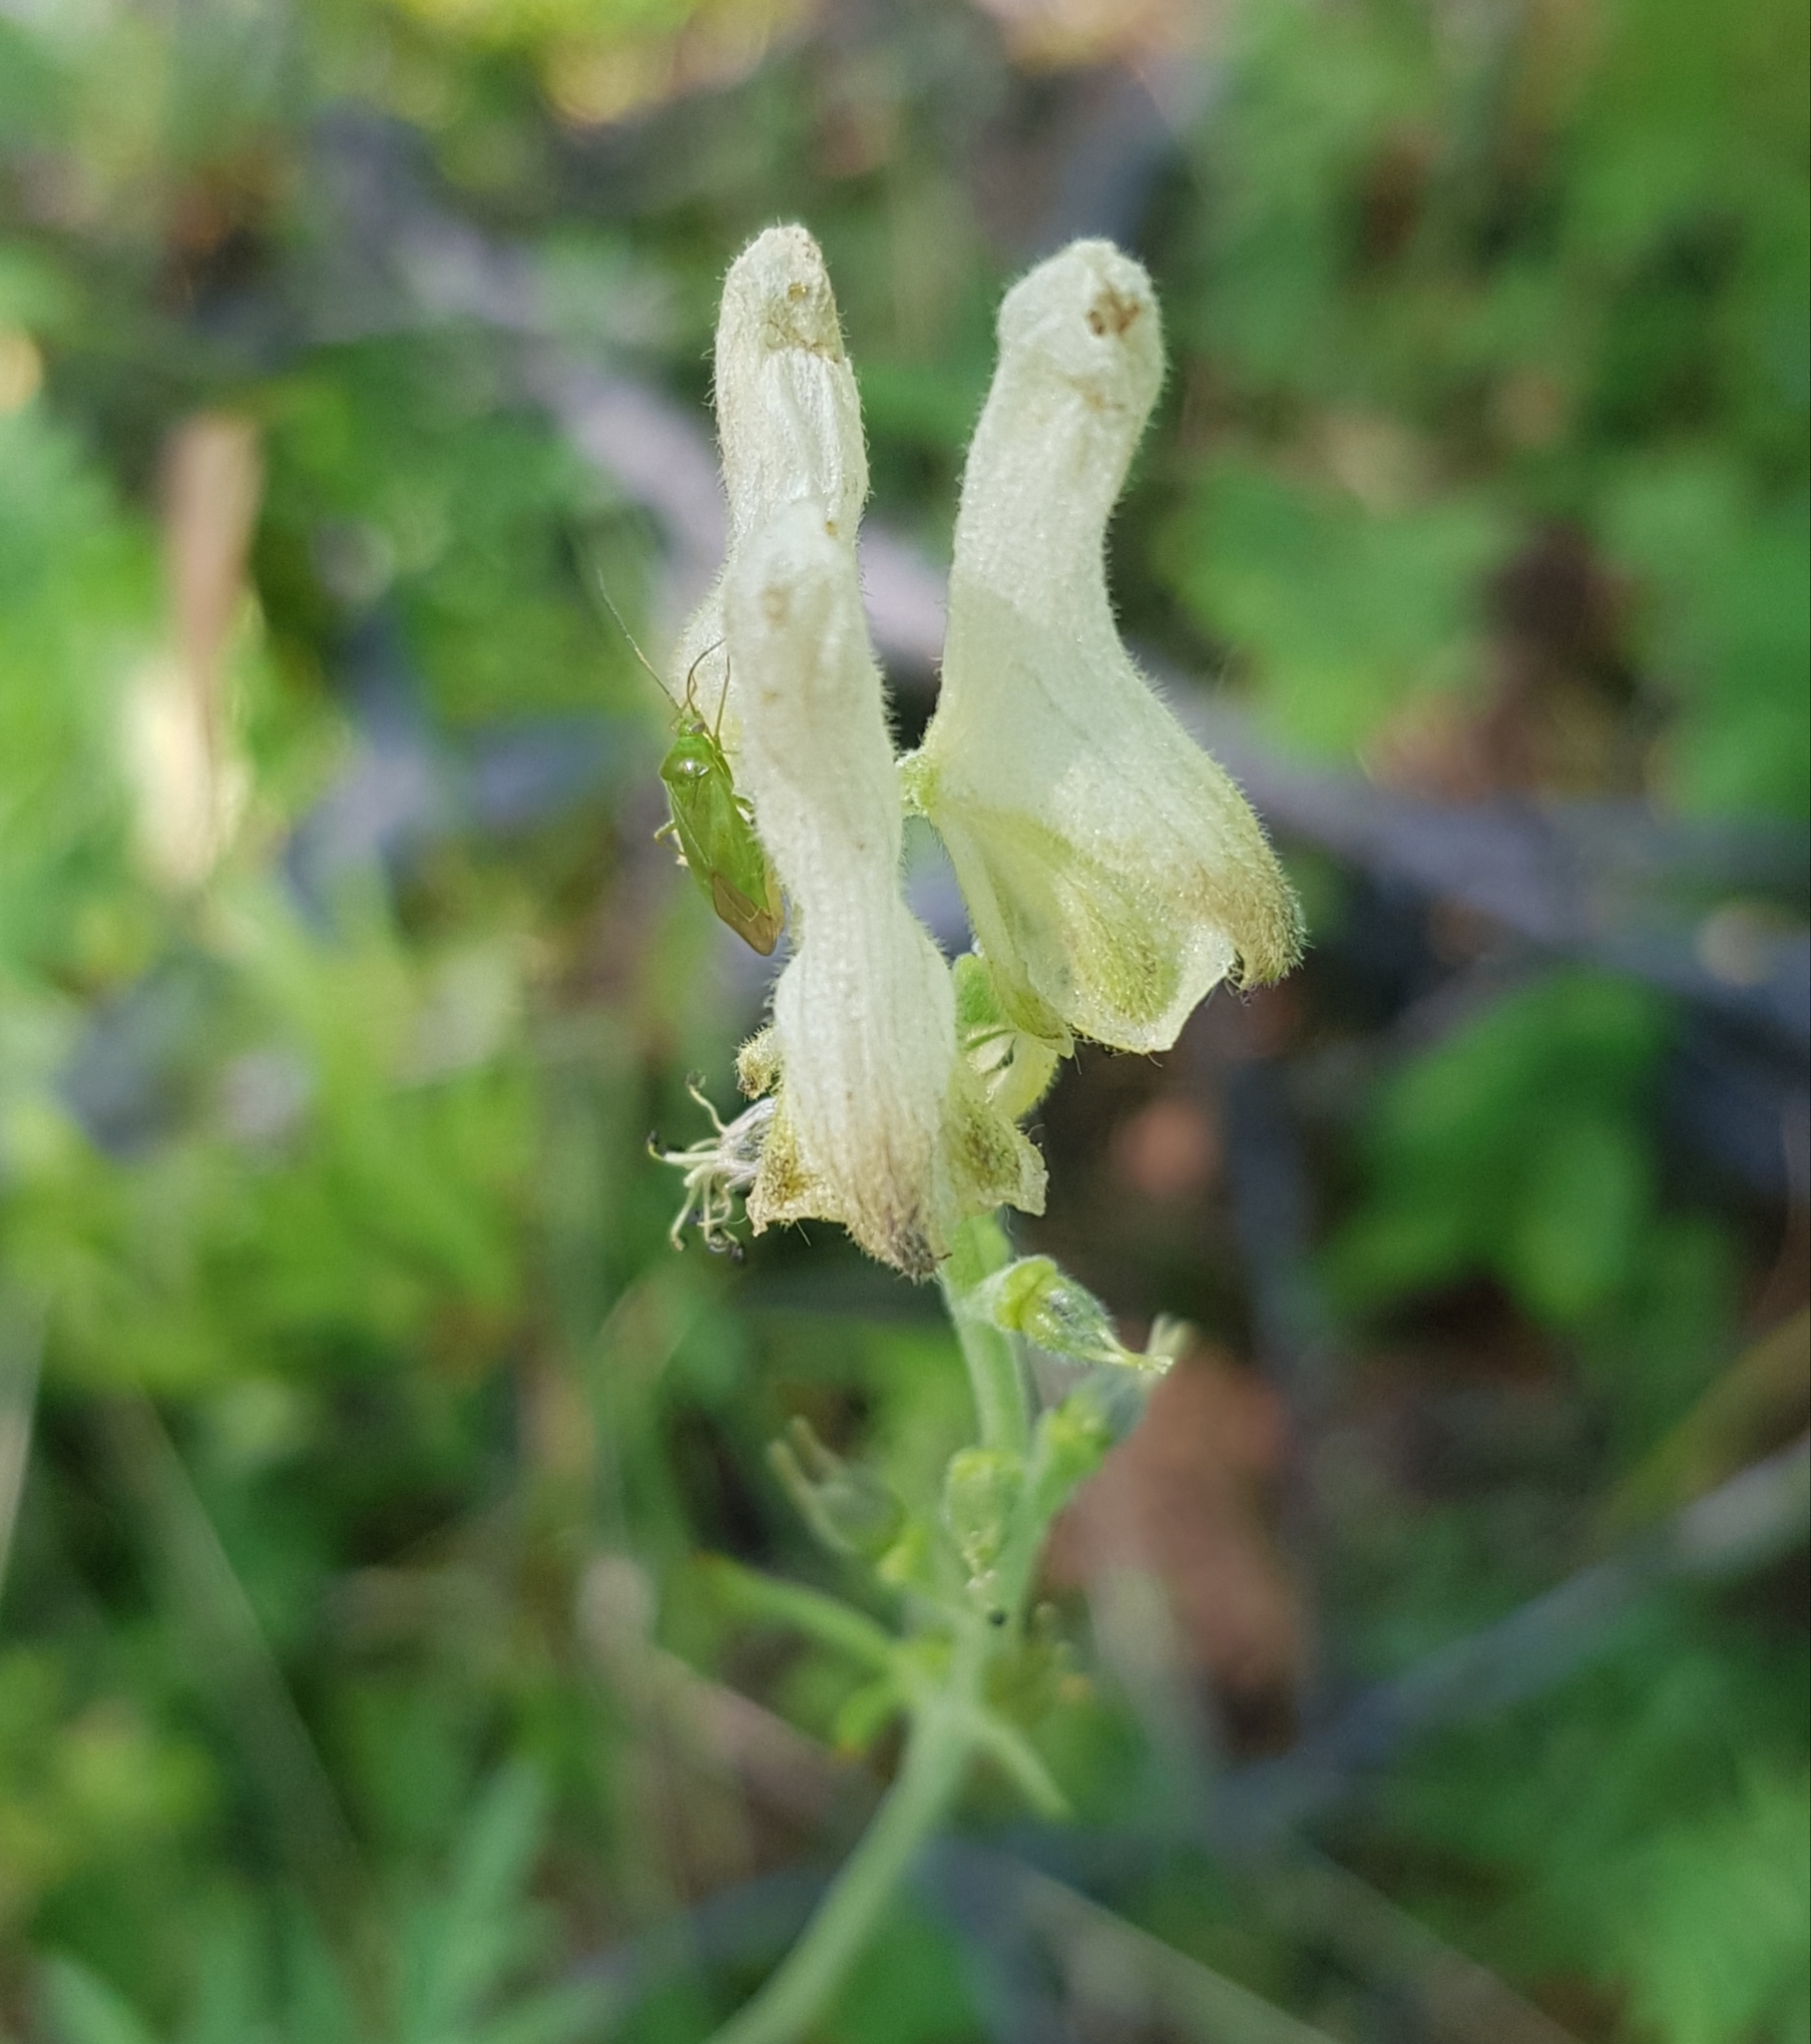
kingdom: Plantae
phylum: Tracheophyta
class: Magnoliopsida
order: Ranunculales
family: Ranunculaceae
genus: Aconitum
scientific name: Aconitum barbatum
